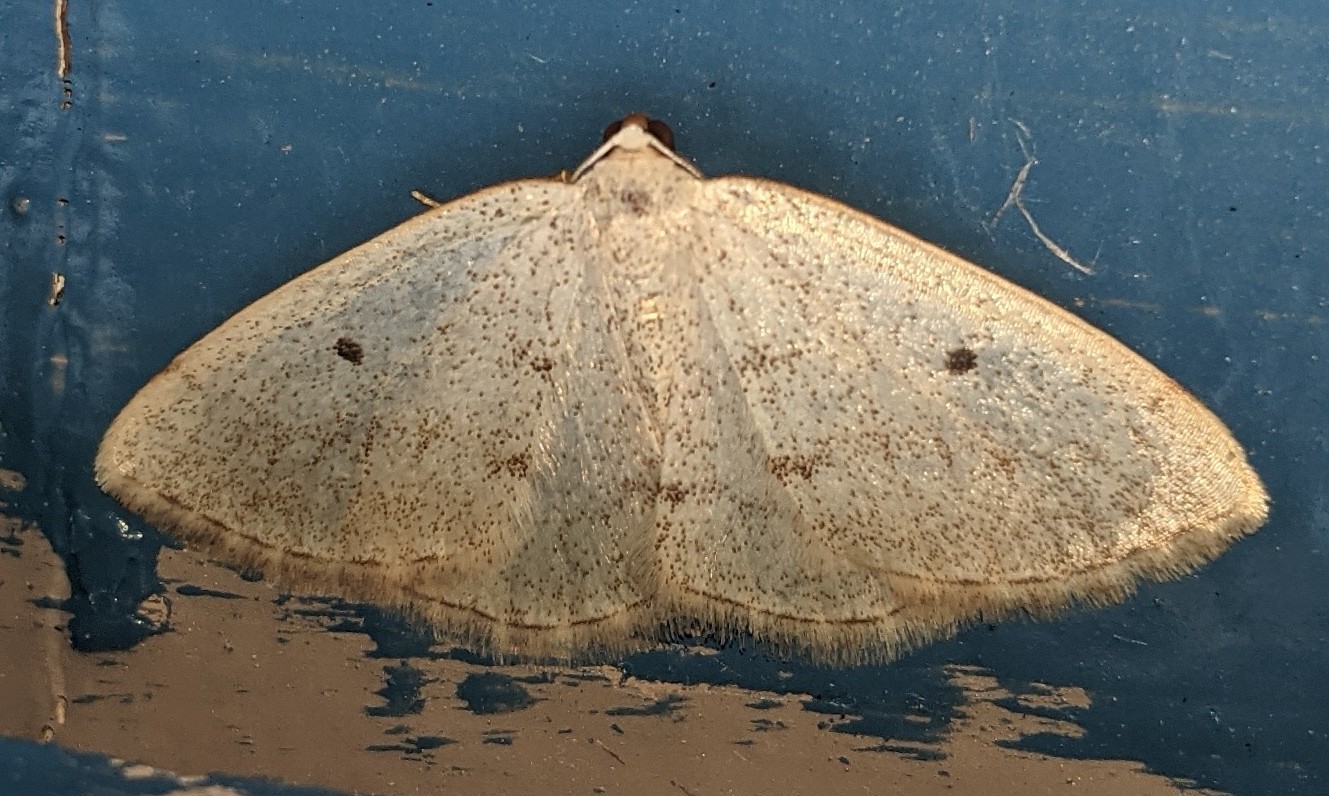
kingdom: Animalia
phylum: Arthropoda
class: Insecta
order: Lepidoptera
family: Geometridae
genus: Lomographa
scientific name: Lomographa glomeraria
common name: Gray spring moth
